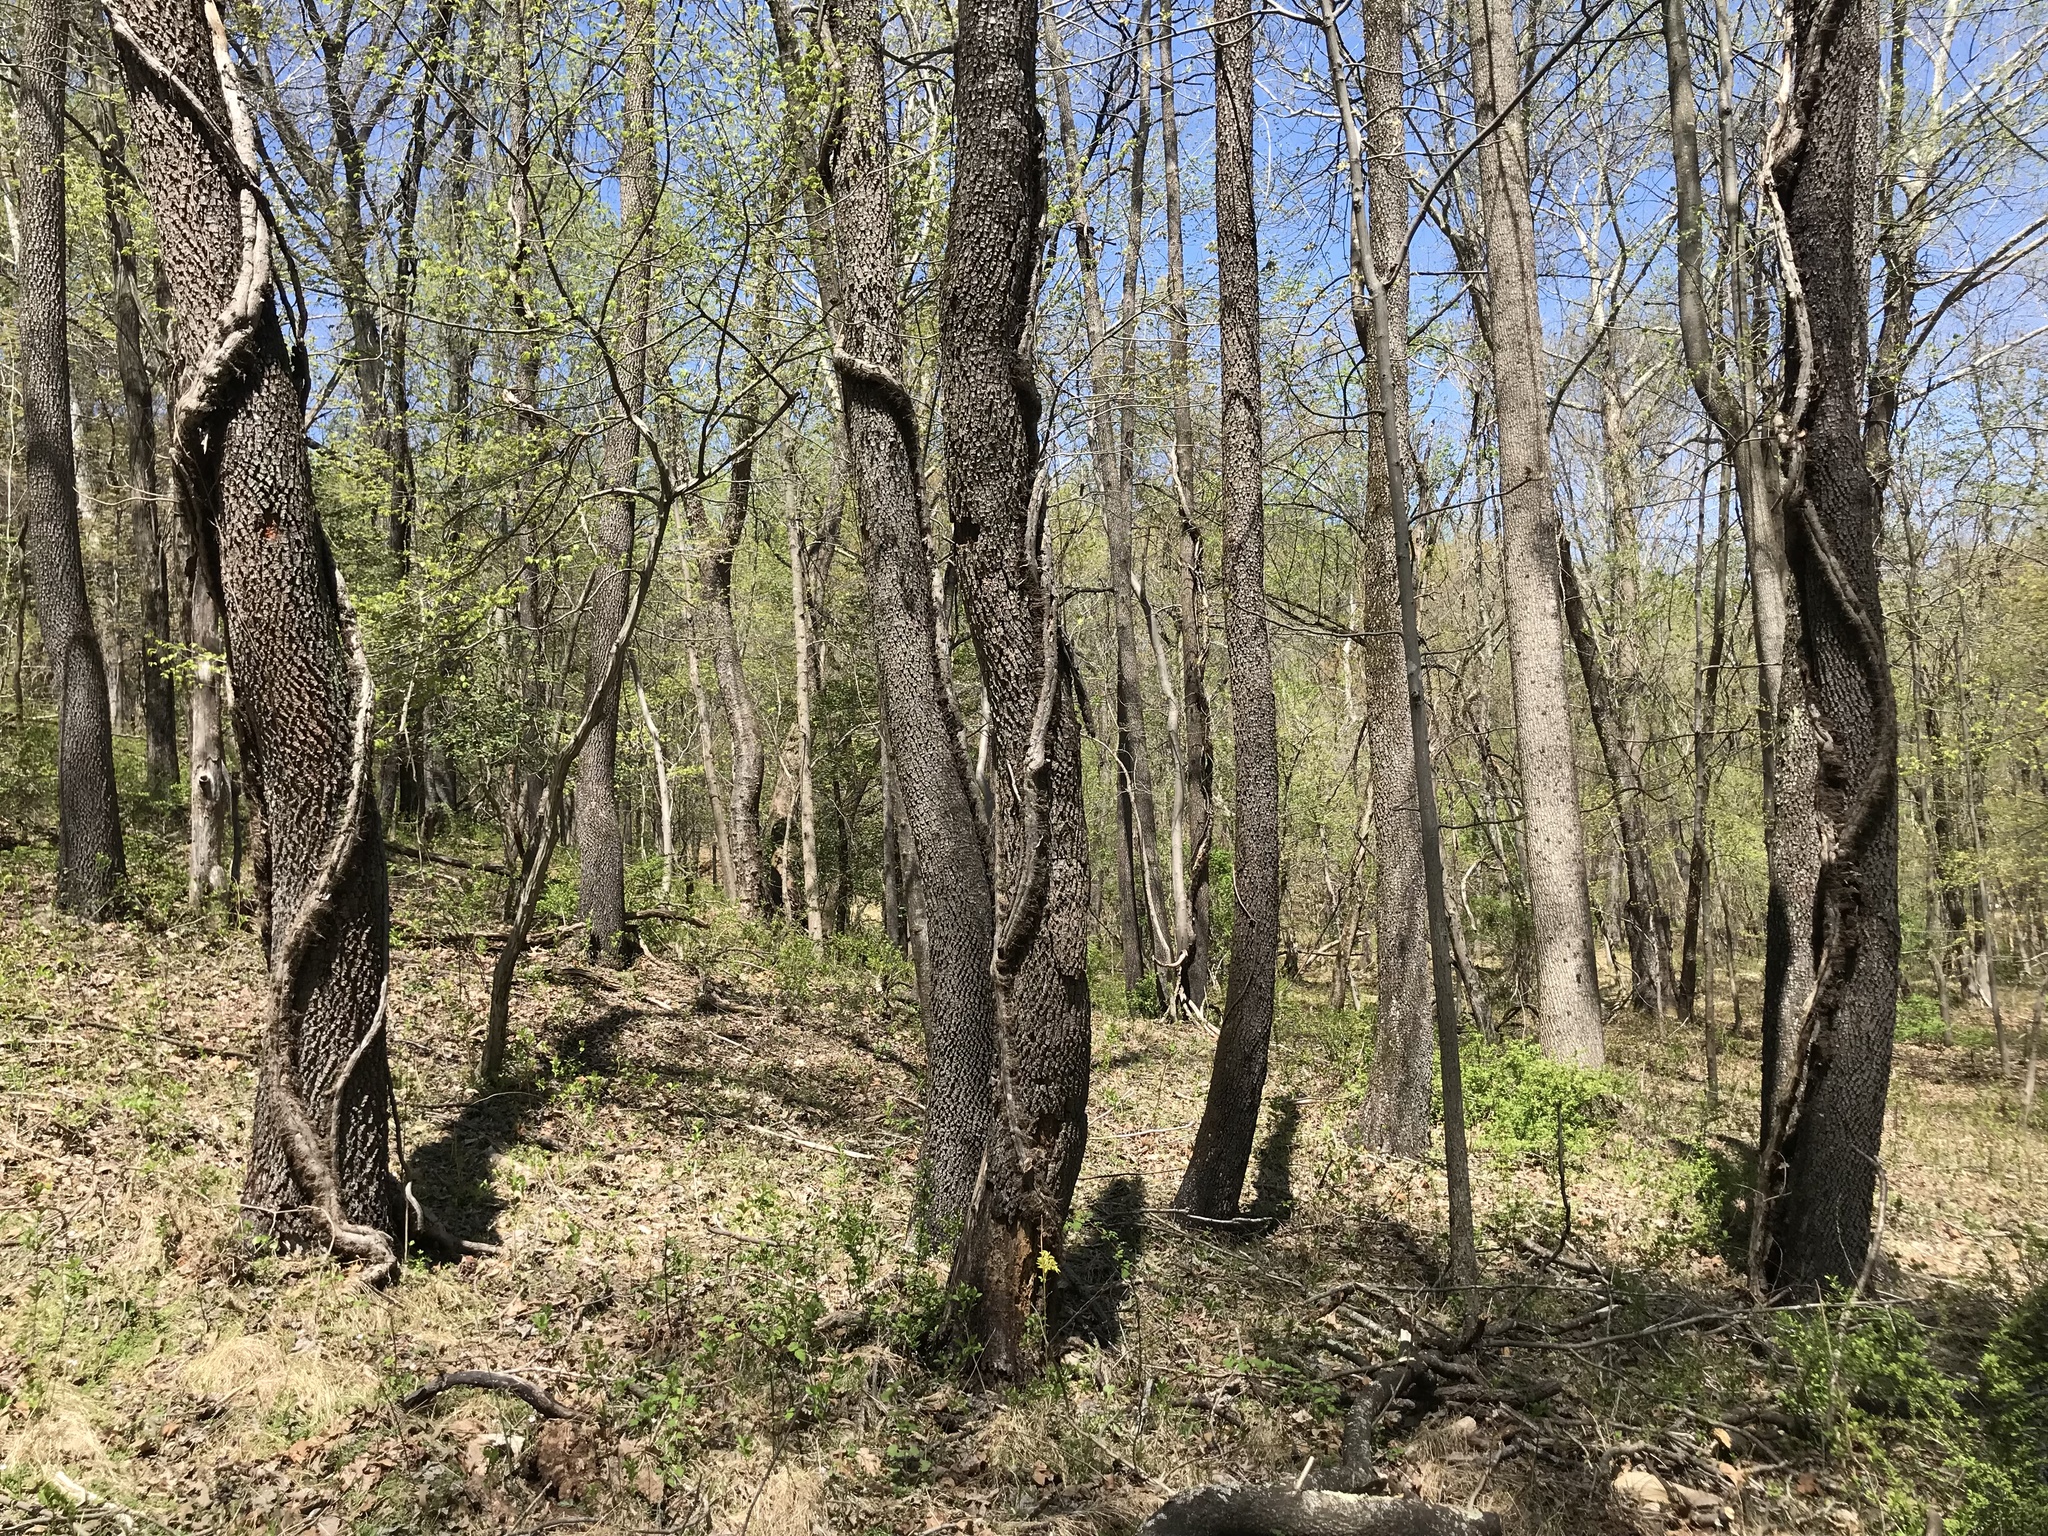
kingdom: Plantae
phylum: Tracheophyta
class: Magnoliopsida
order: Ericales
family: Ebenaceae
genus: Diospyros
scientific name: Diospyros virginiana
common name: Persimmon
